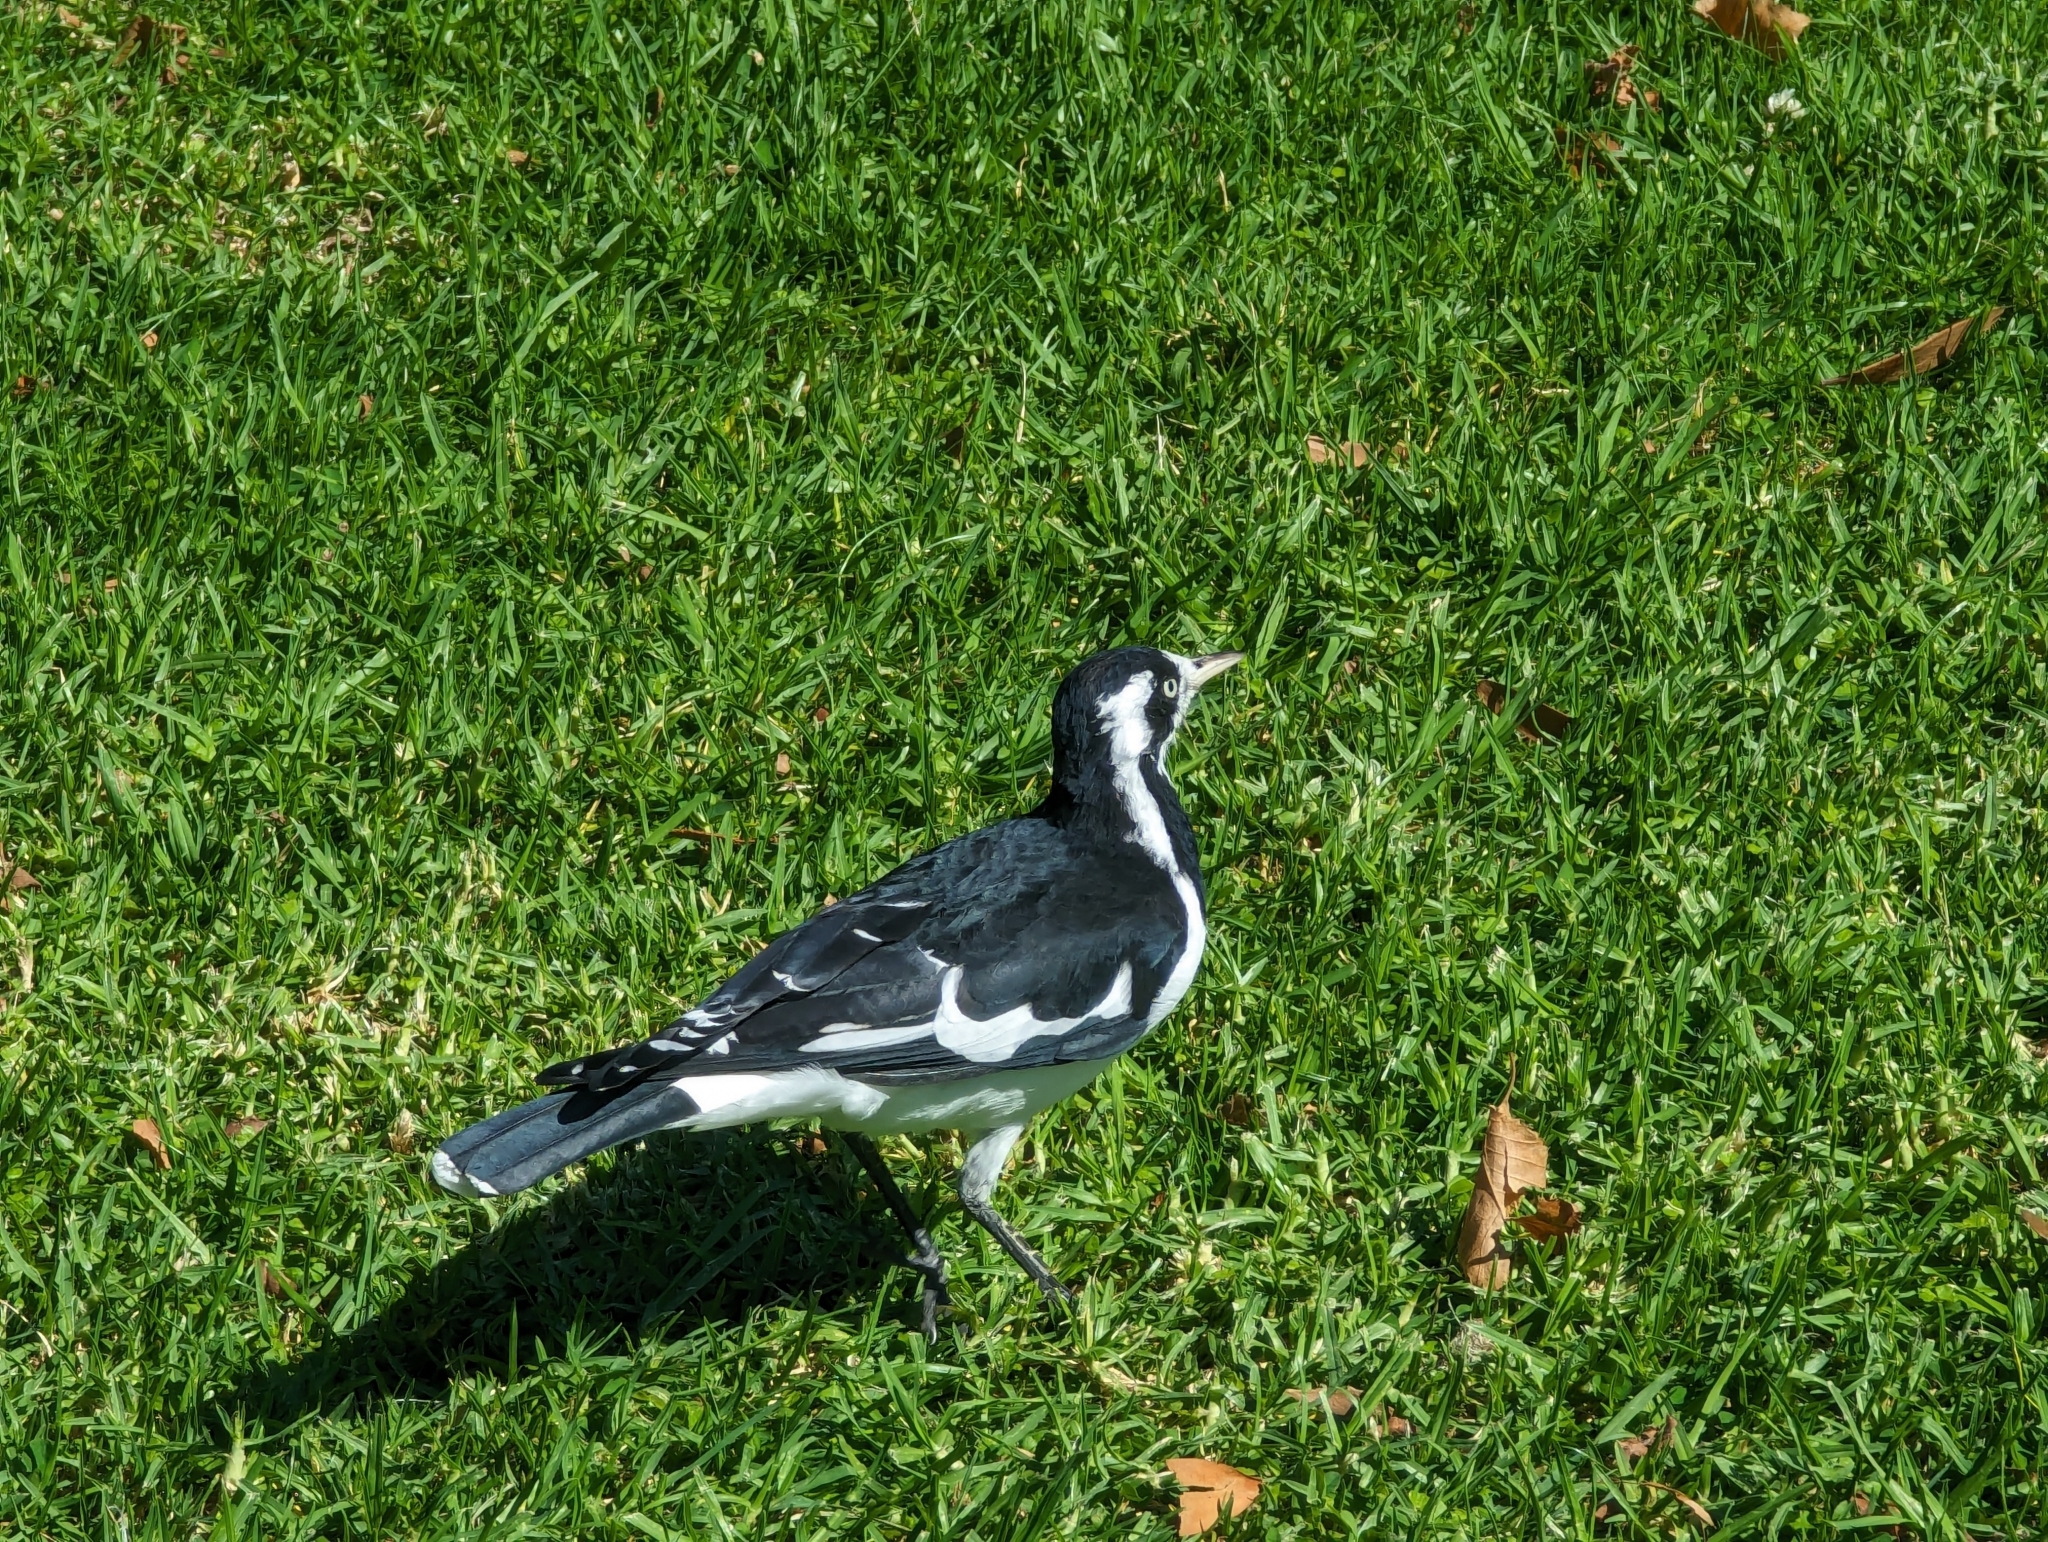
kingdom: Animalia
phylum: Chordata
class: Aves
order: Passeriformes
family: Monarchidae
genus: Grallina
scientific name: Grallina cyanoleuca
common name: Magpie-lark
